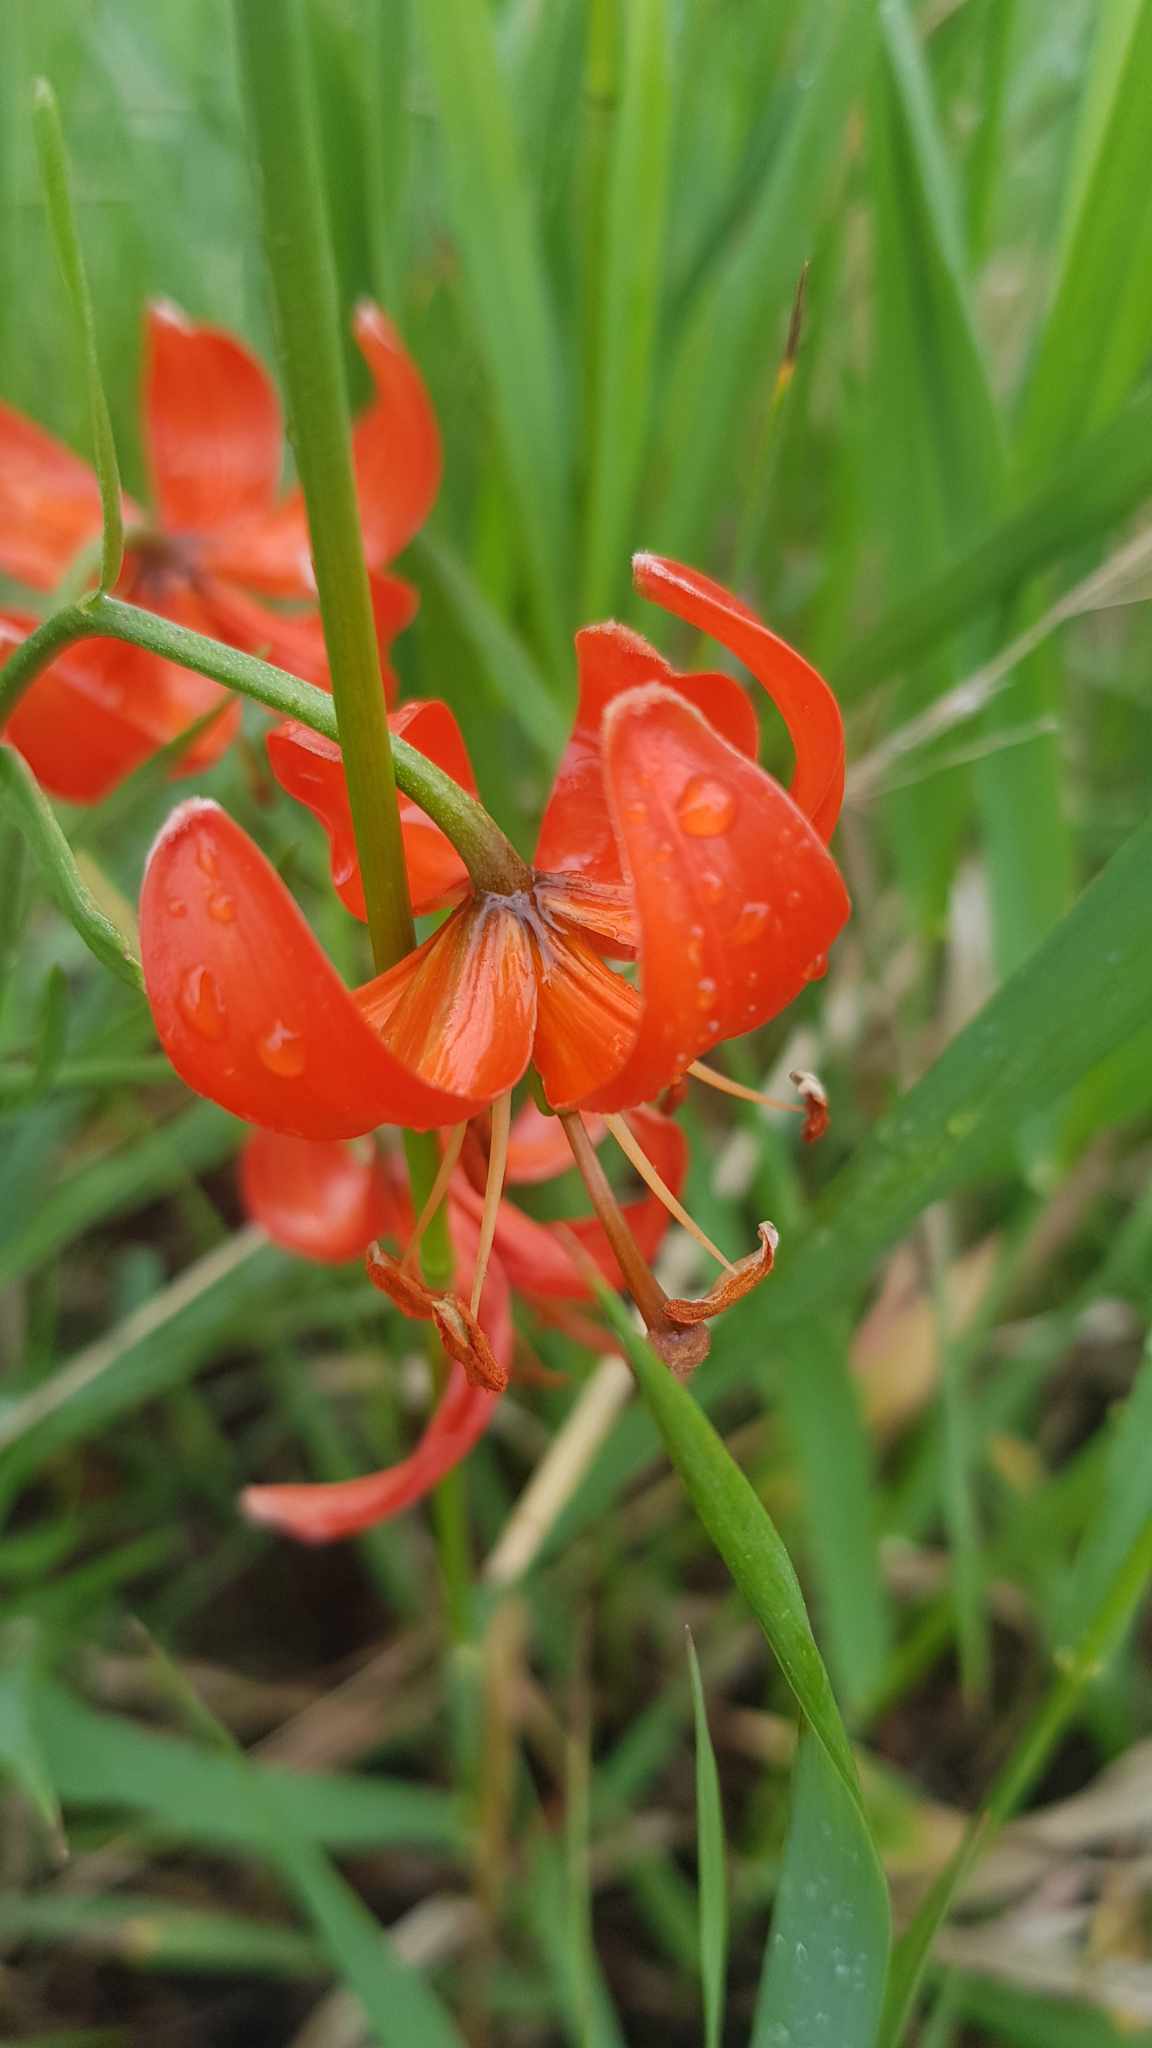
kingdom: Plantae
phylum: Tracheophyta
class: Liliopsida
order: Liliales
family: Liliaceae
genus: Lilium
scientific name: Lilium pumilum
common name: Coral lily
